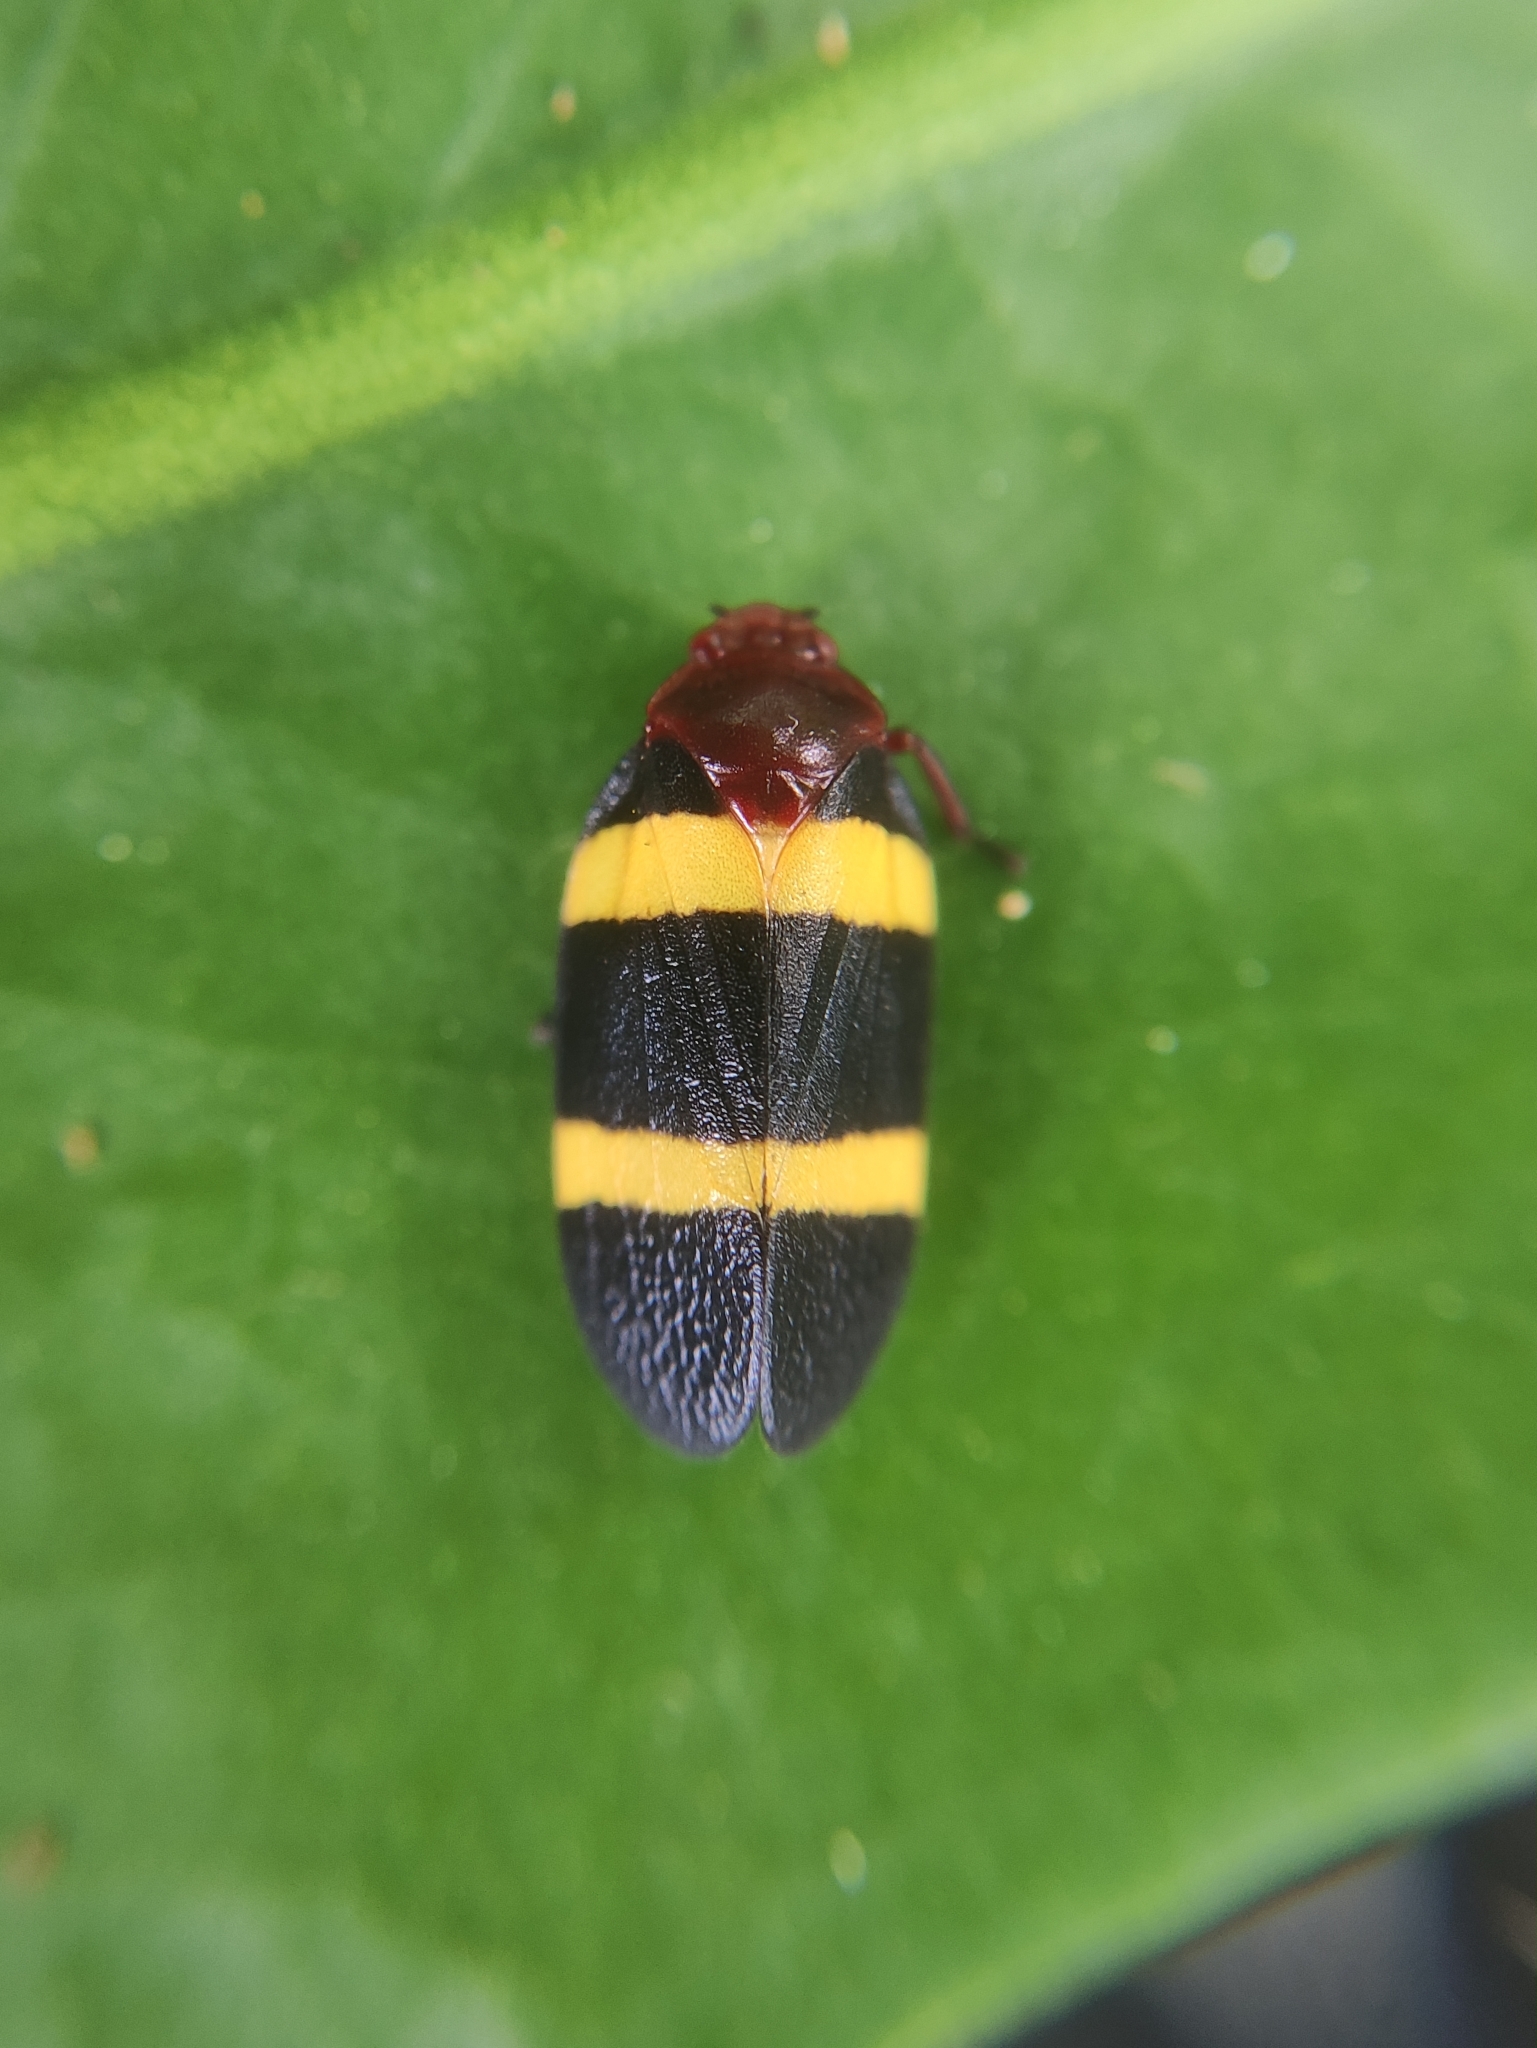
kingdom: Animalia
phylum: Arthropoda
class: Insecta
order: Hemiptera
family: Cercopidae
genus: Sphenorhina
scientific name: Sphenorhina rubra
